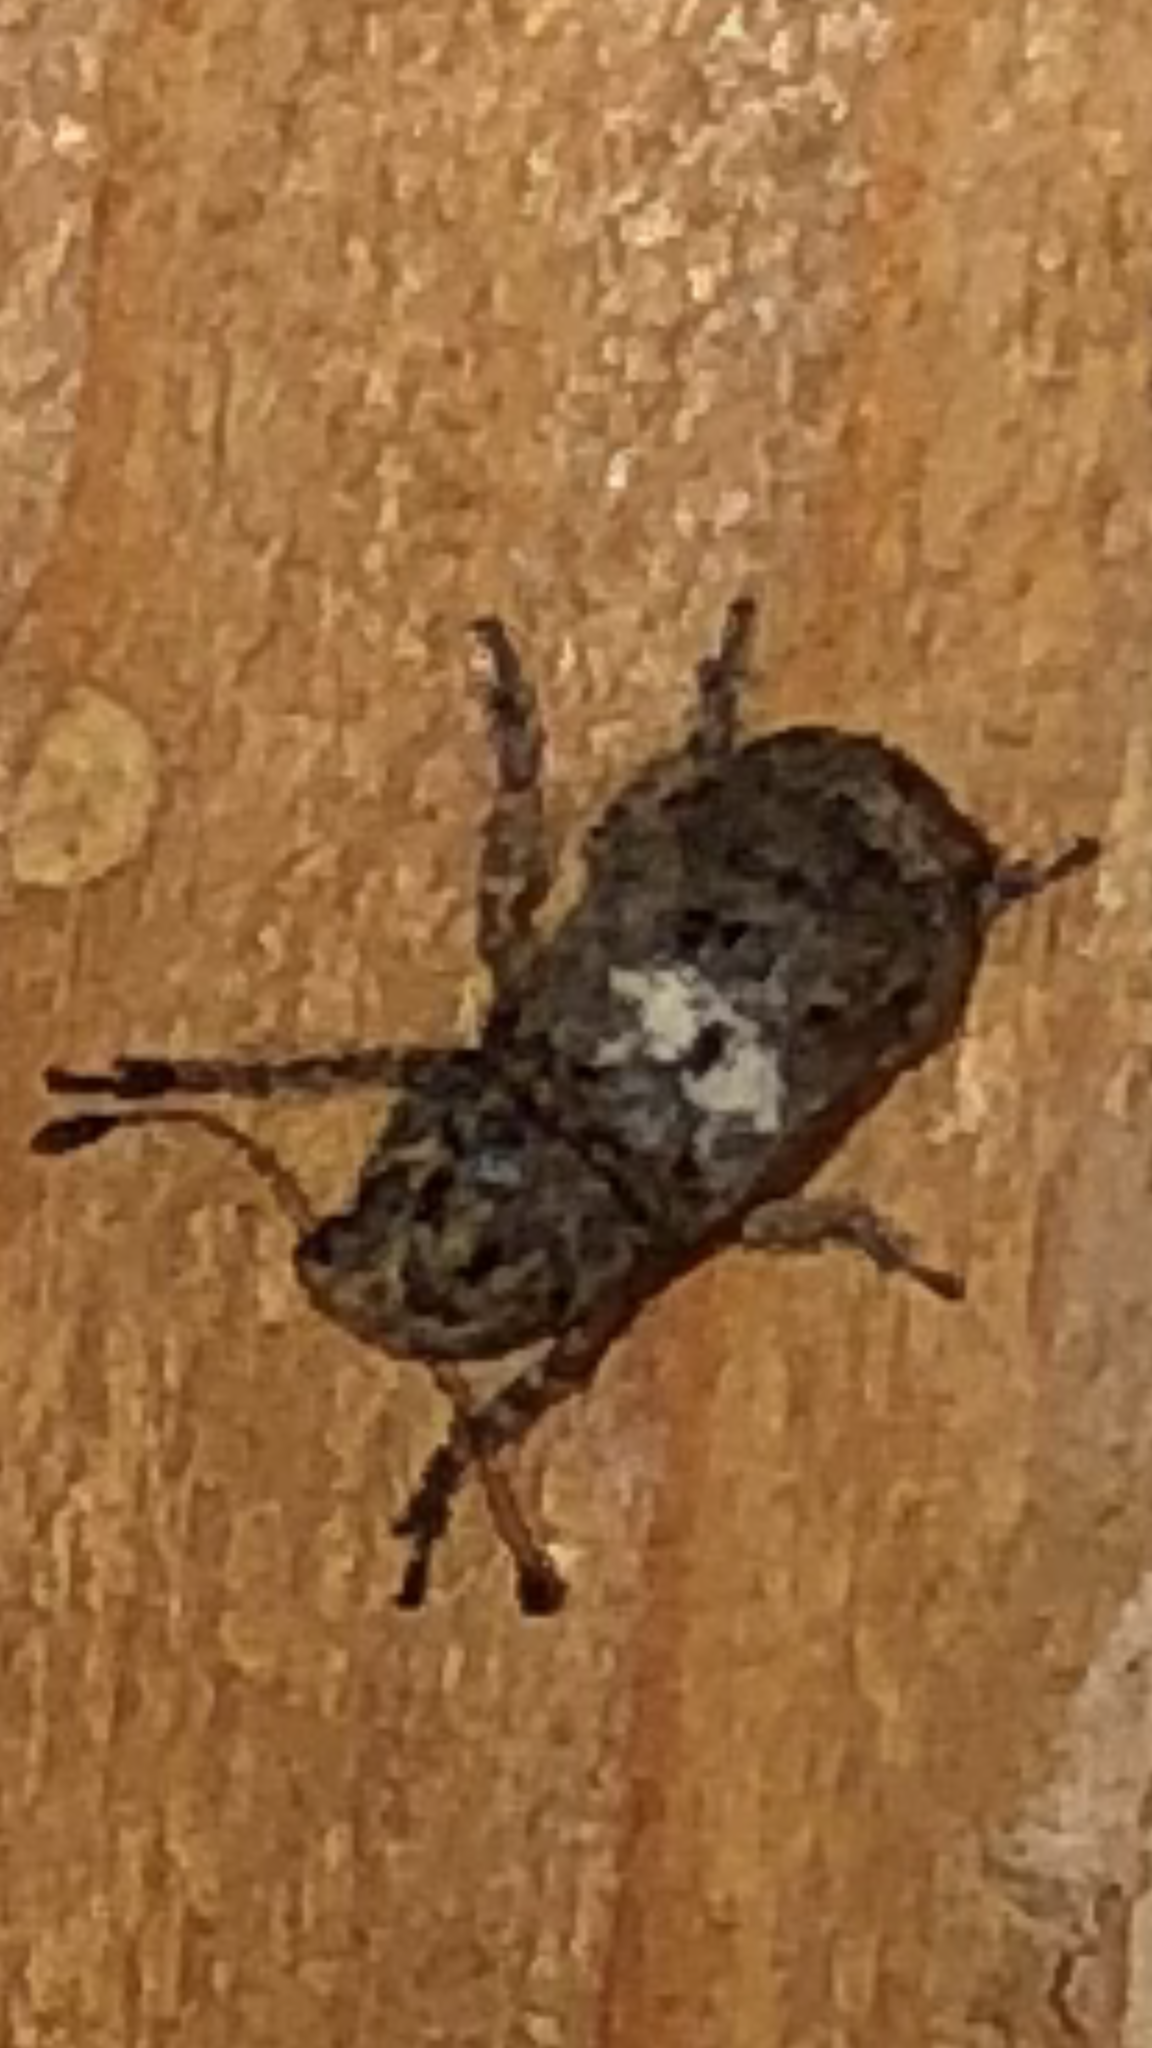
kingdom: Animalia
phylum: Arthropoda
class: Insecta
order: Coleoptera
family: Anthribidae
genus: Toxonotus
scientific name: Toxonotus cornutus
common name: Fungus weevil
